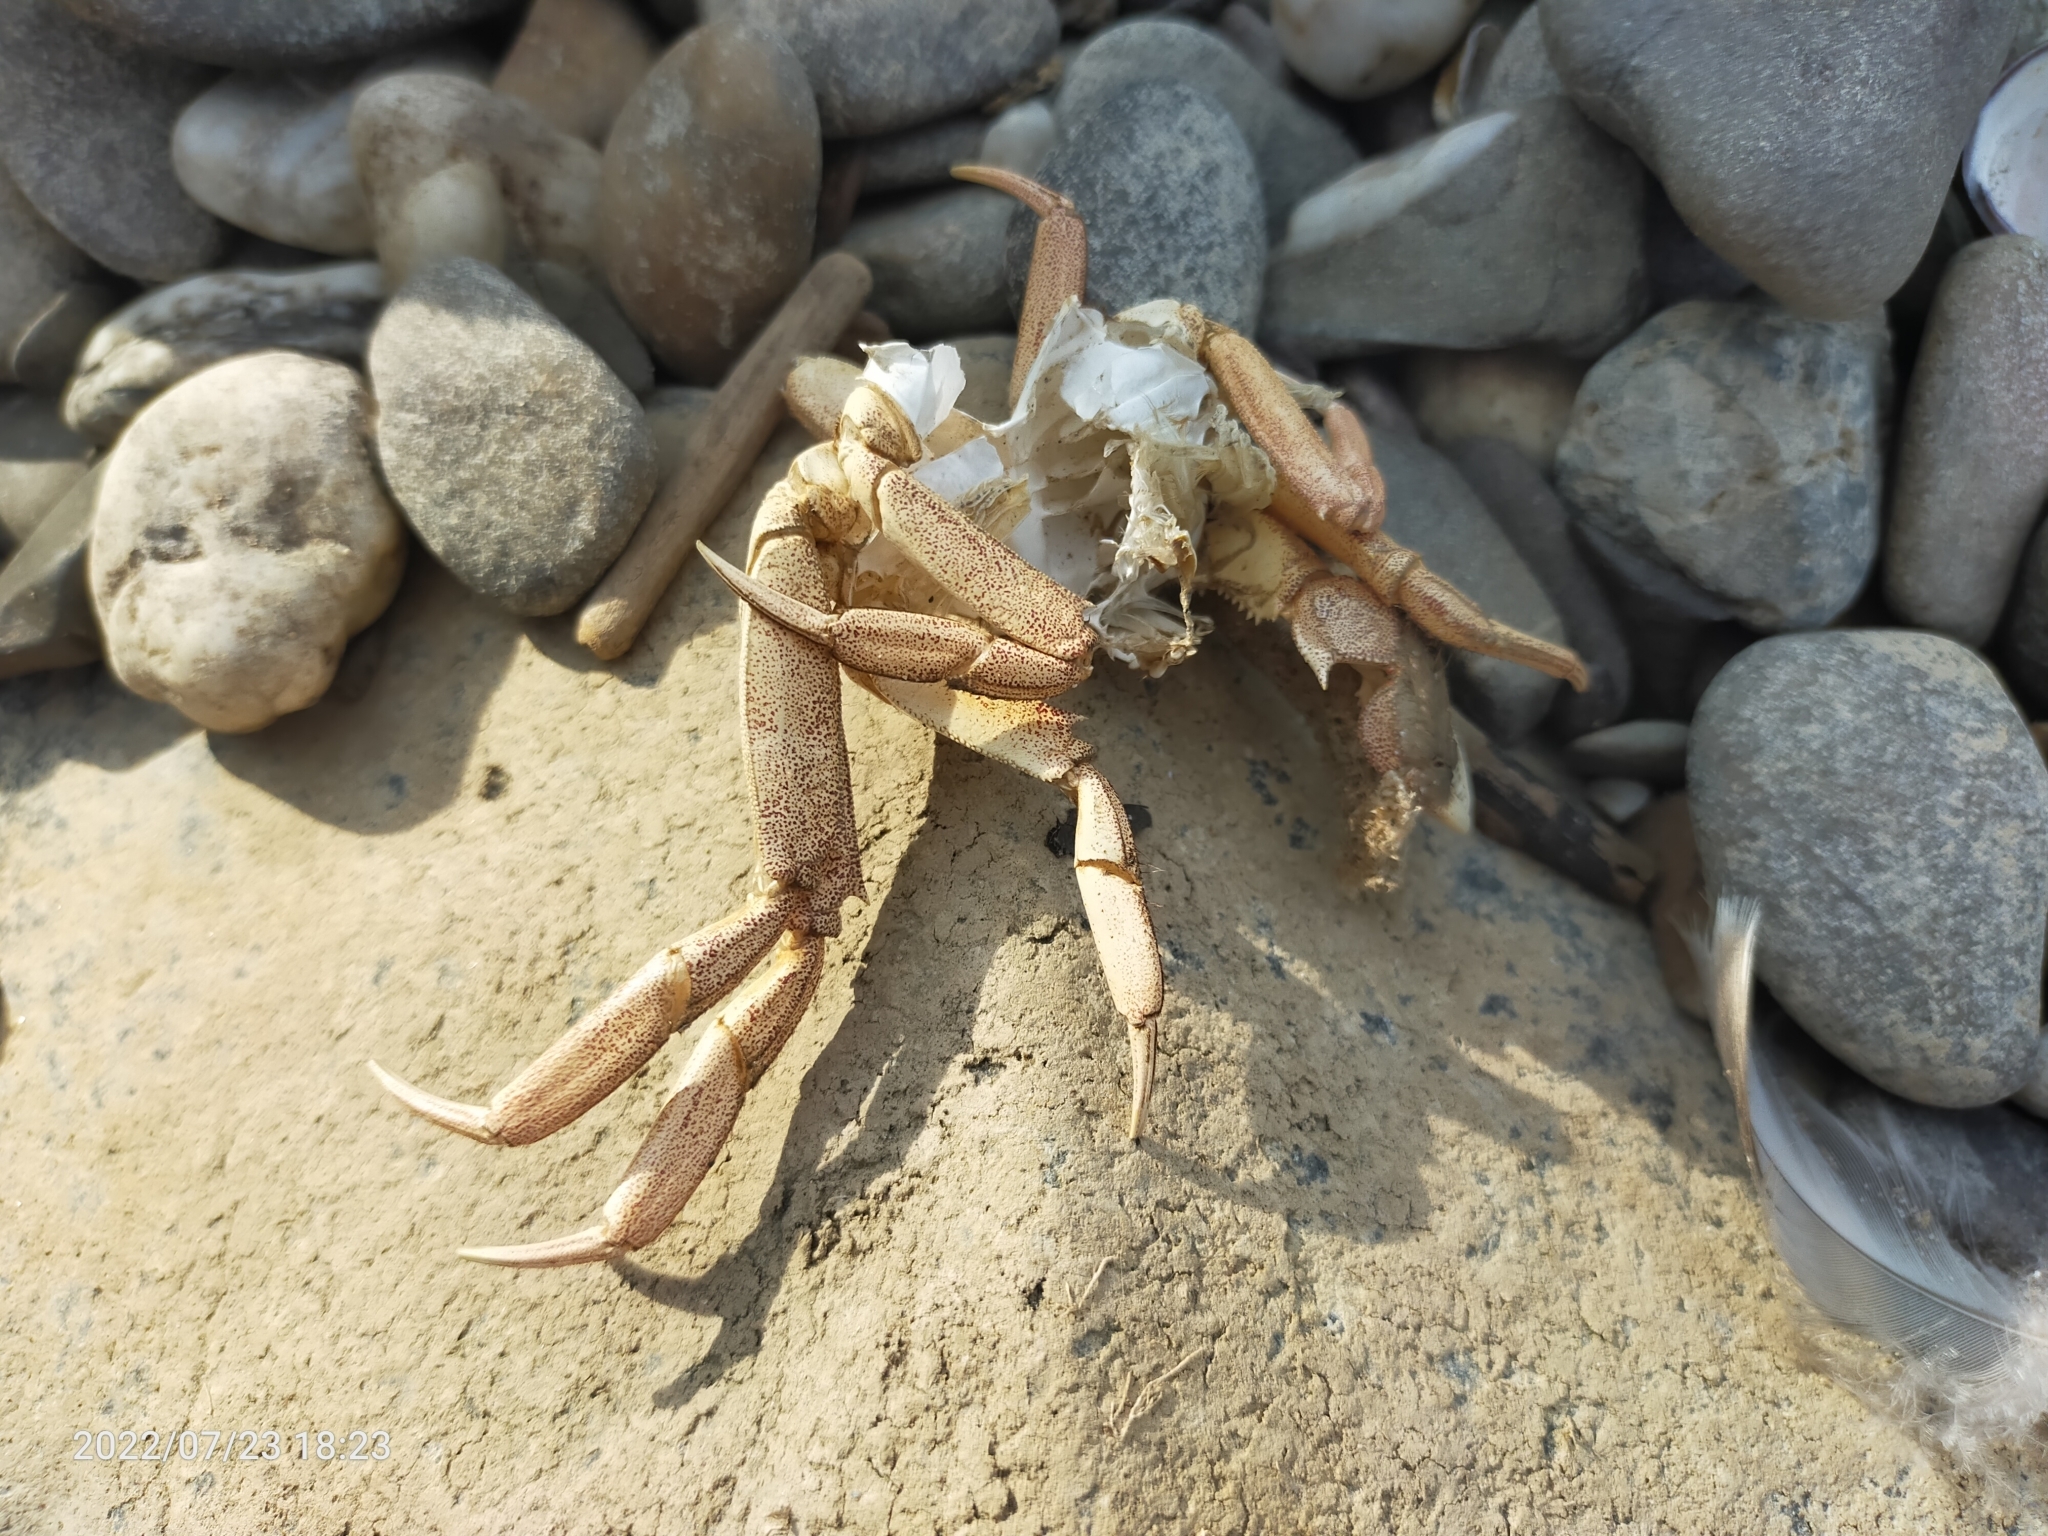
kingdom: Animalia
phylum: Arthropoda
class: Malacostraca
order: Decapoda
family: Varunidae
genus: Eriocheir
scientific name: Eriocheir sinensis
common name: Chinese mitten crab
